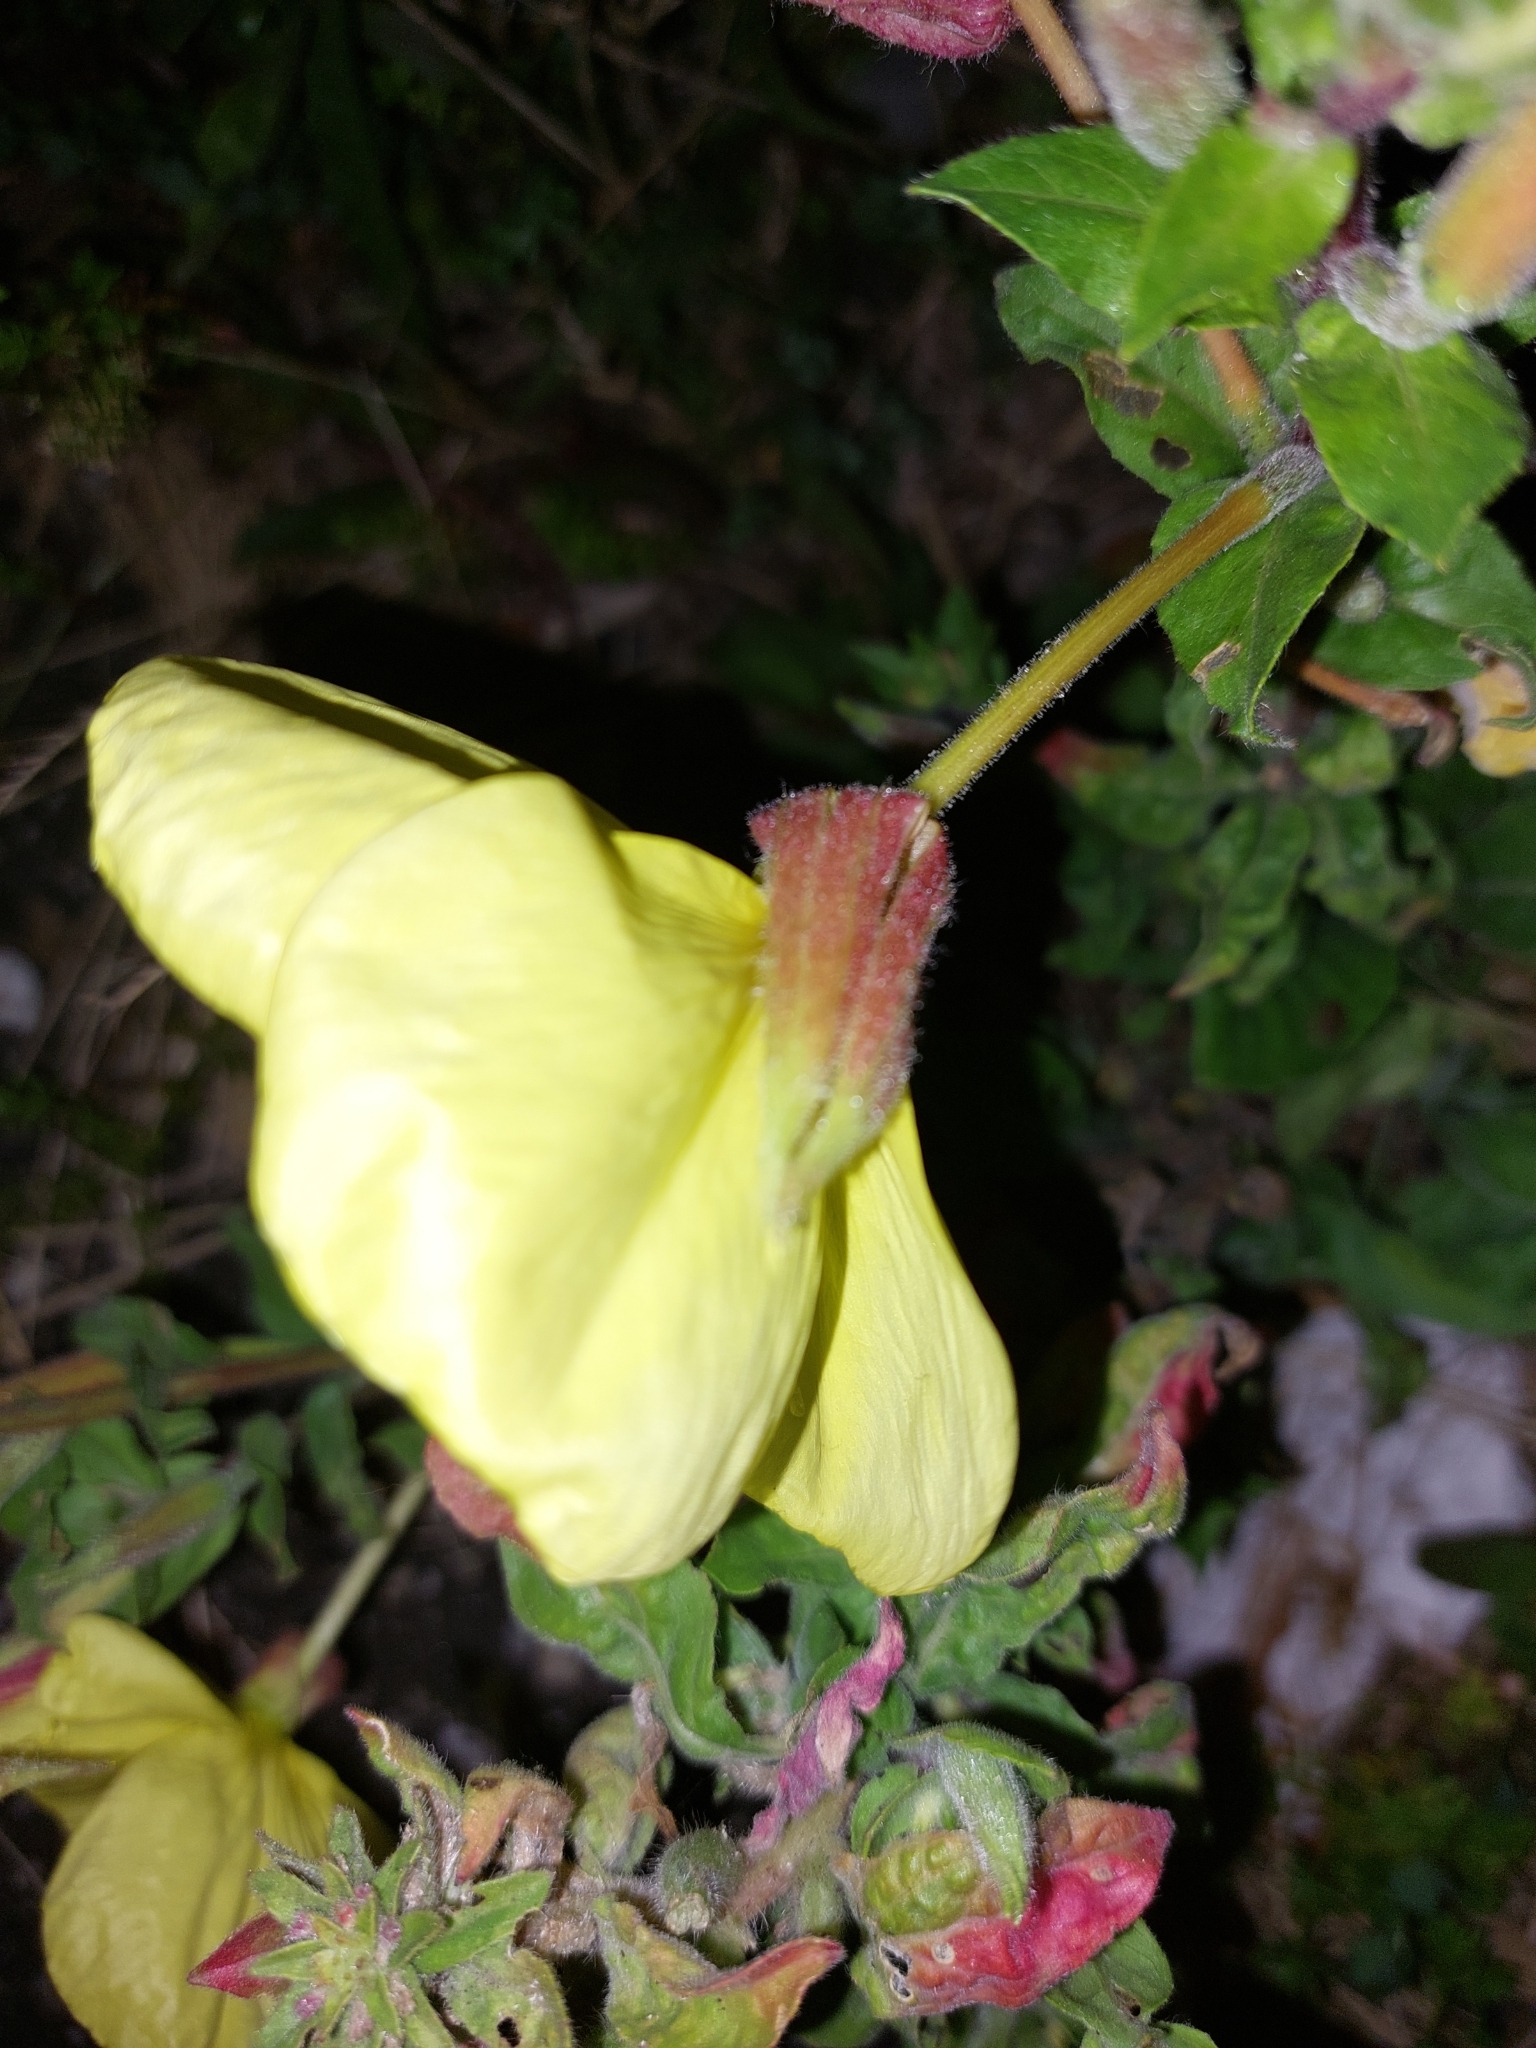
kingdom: Plantae
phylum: Tracheophyta
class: Magnoliopsida
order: Myrtales
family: Onagraceae
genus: Oenothera
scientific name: Oenothera glazioviana
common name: Large-flowered evening-primrose
